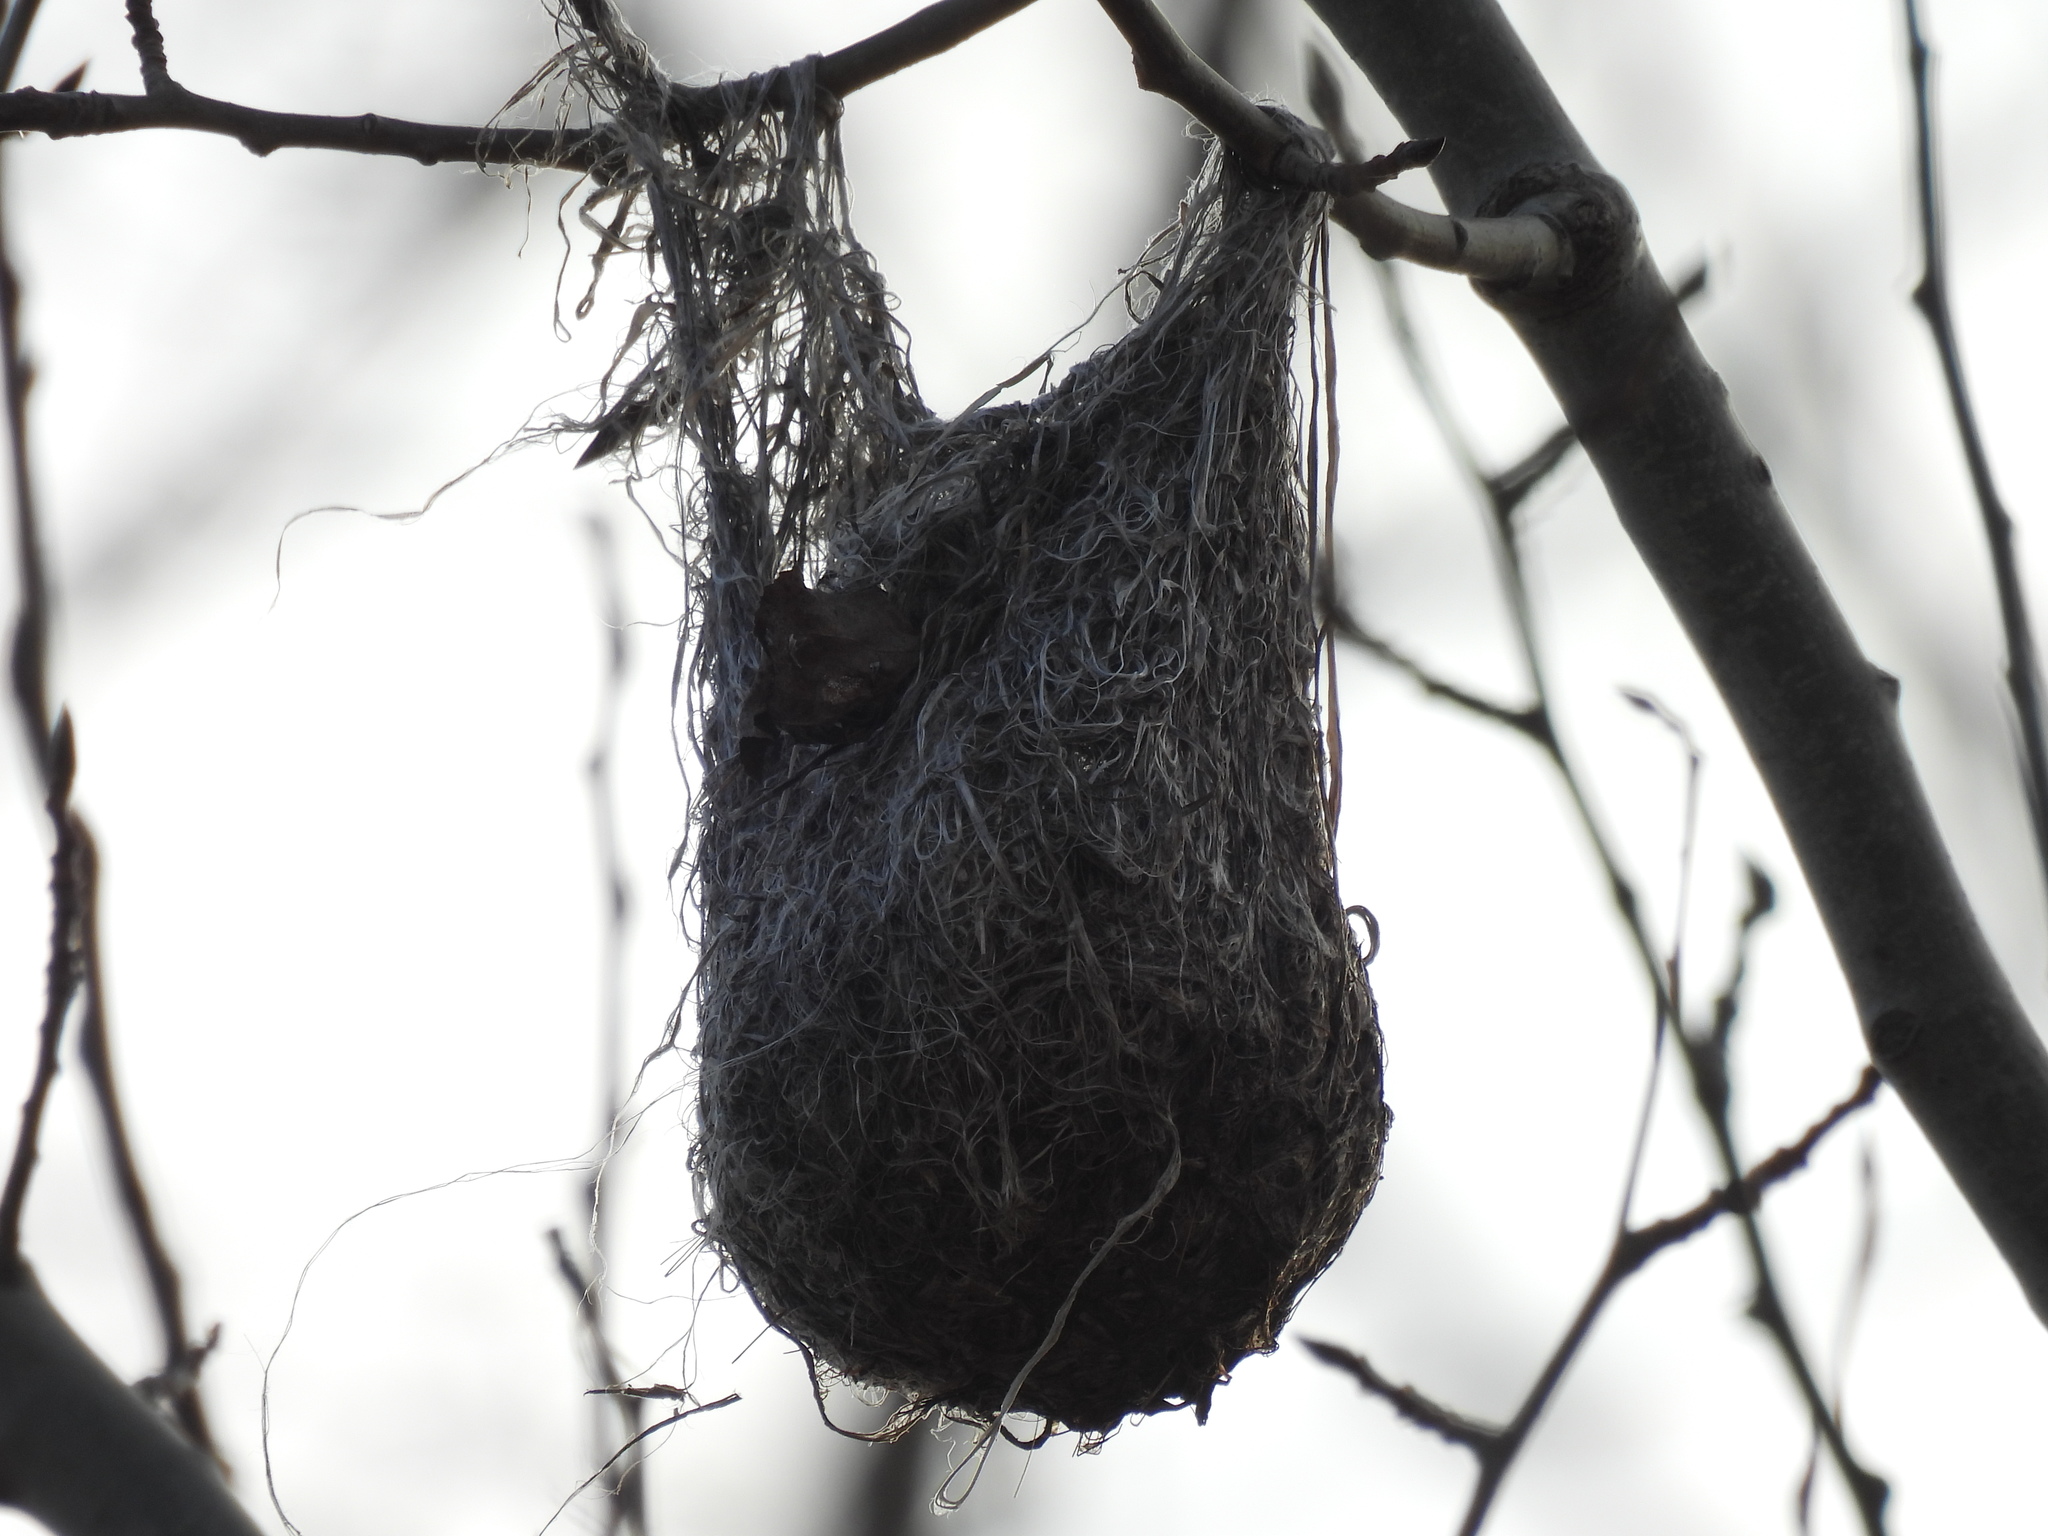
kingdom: Animalia
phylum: Chordata
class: Aves
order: Passeriformes
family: Icteridae
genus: Icterus
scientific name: Icterus galbula
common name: Baltimore oriole
